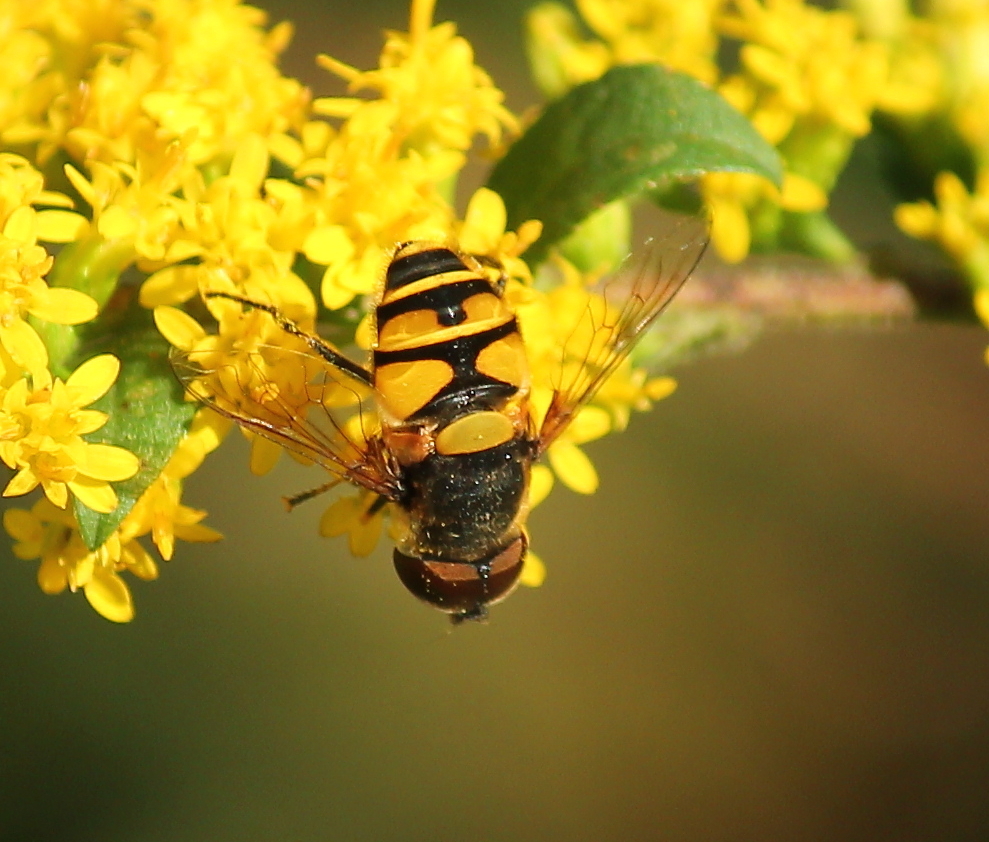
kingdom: Animalia
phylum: Arthropoda
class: Insecta
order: Diptera
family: Syrphidae
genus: Eristalis
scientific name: Eristalis transversa
